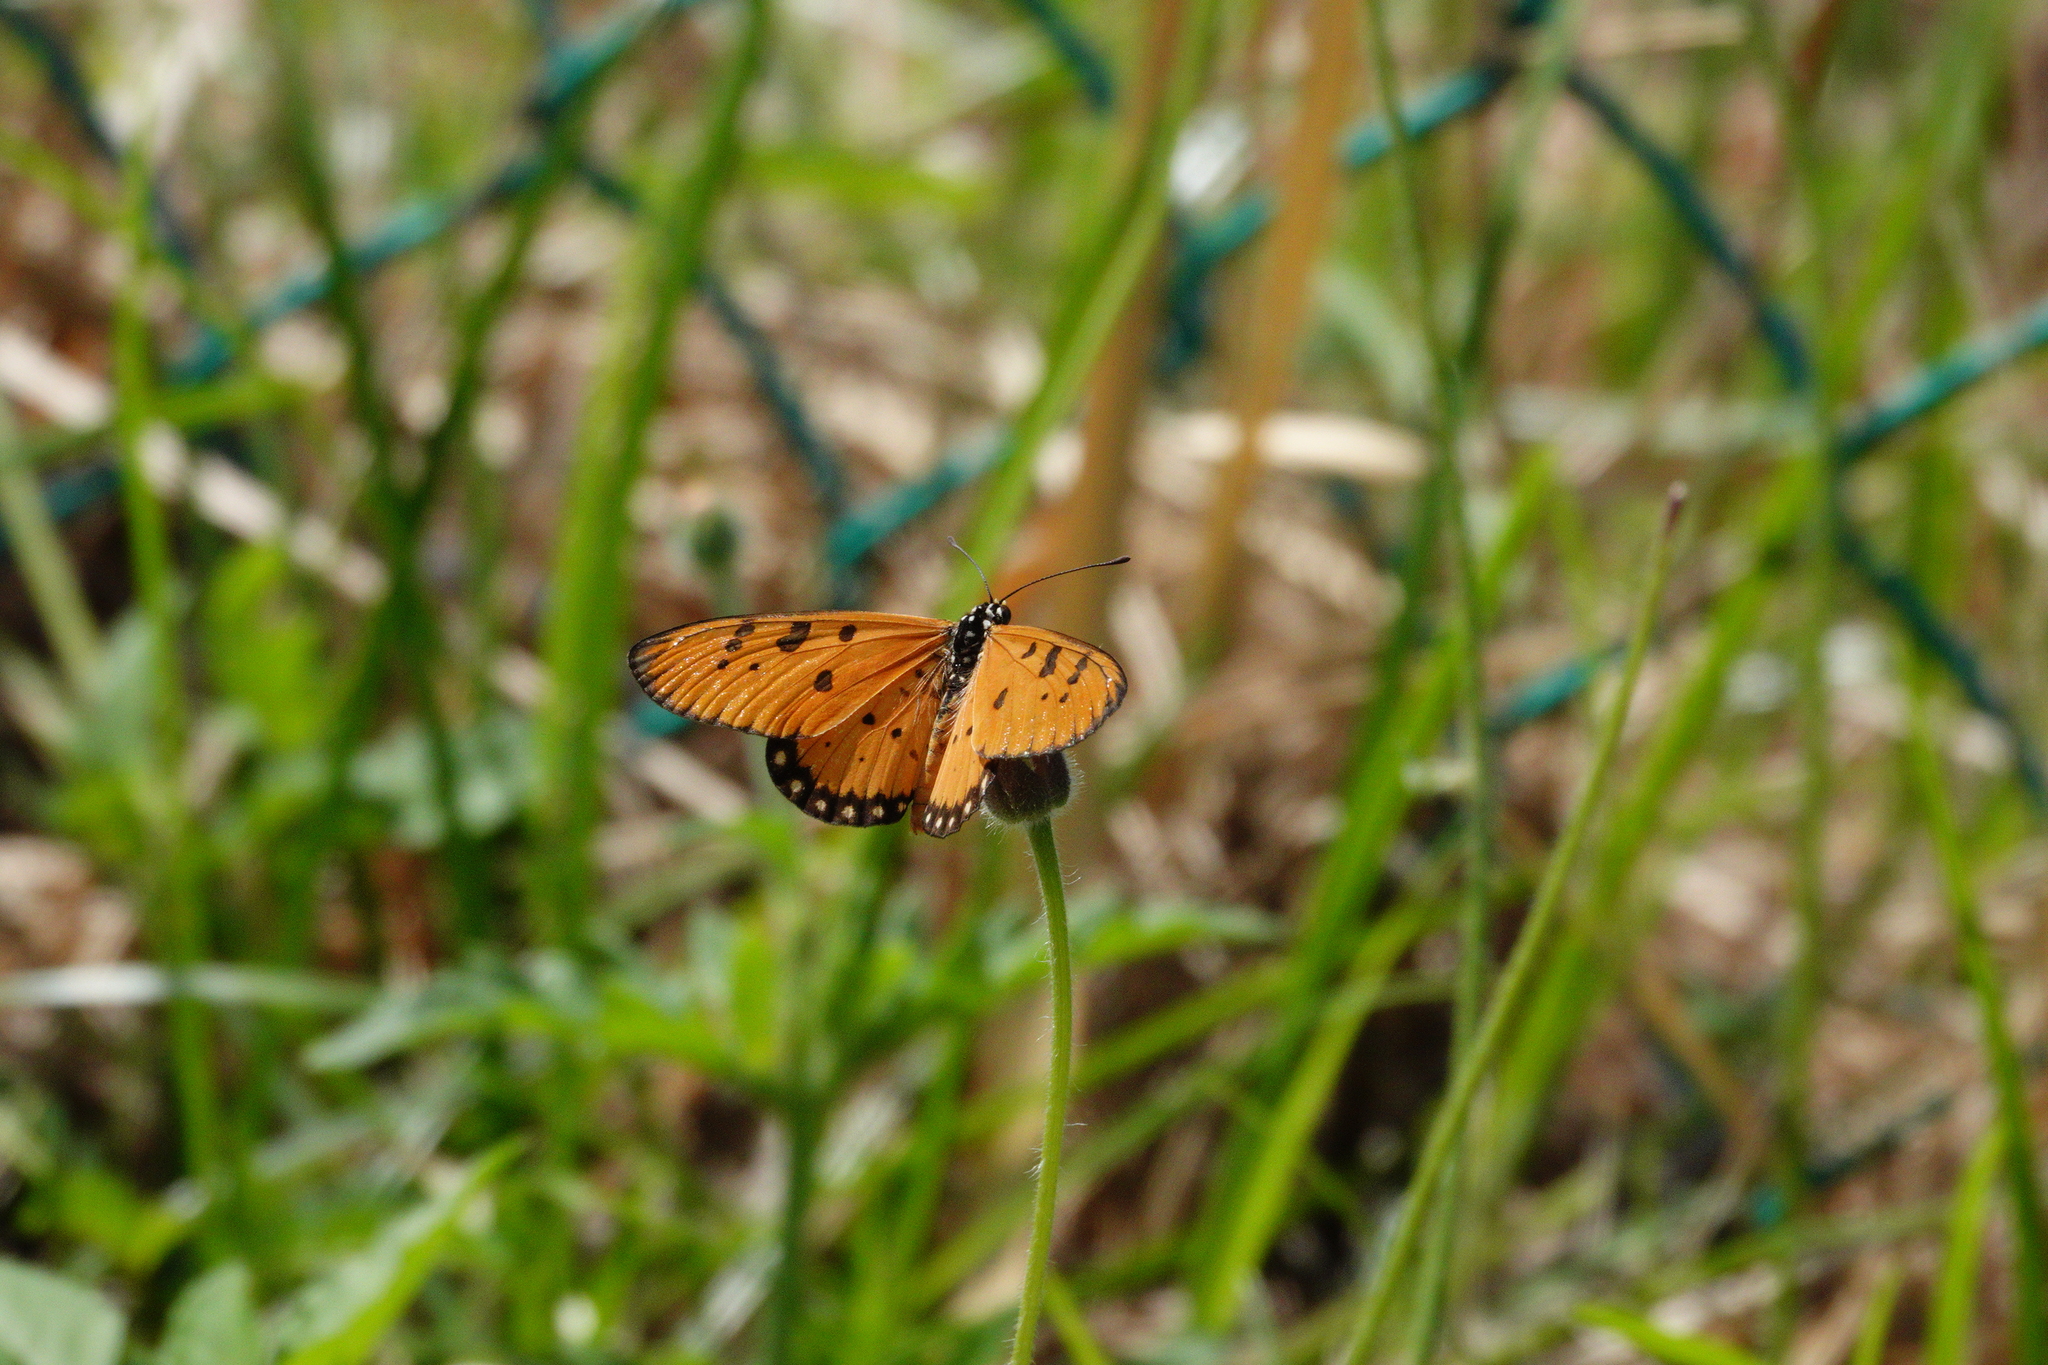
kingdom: Animalia
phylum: Arthropoda
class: Insecta
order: Lepidoptera
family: Nymphalidae
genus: Acraea
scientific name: Acraea terpsicore
